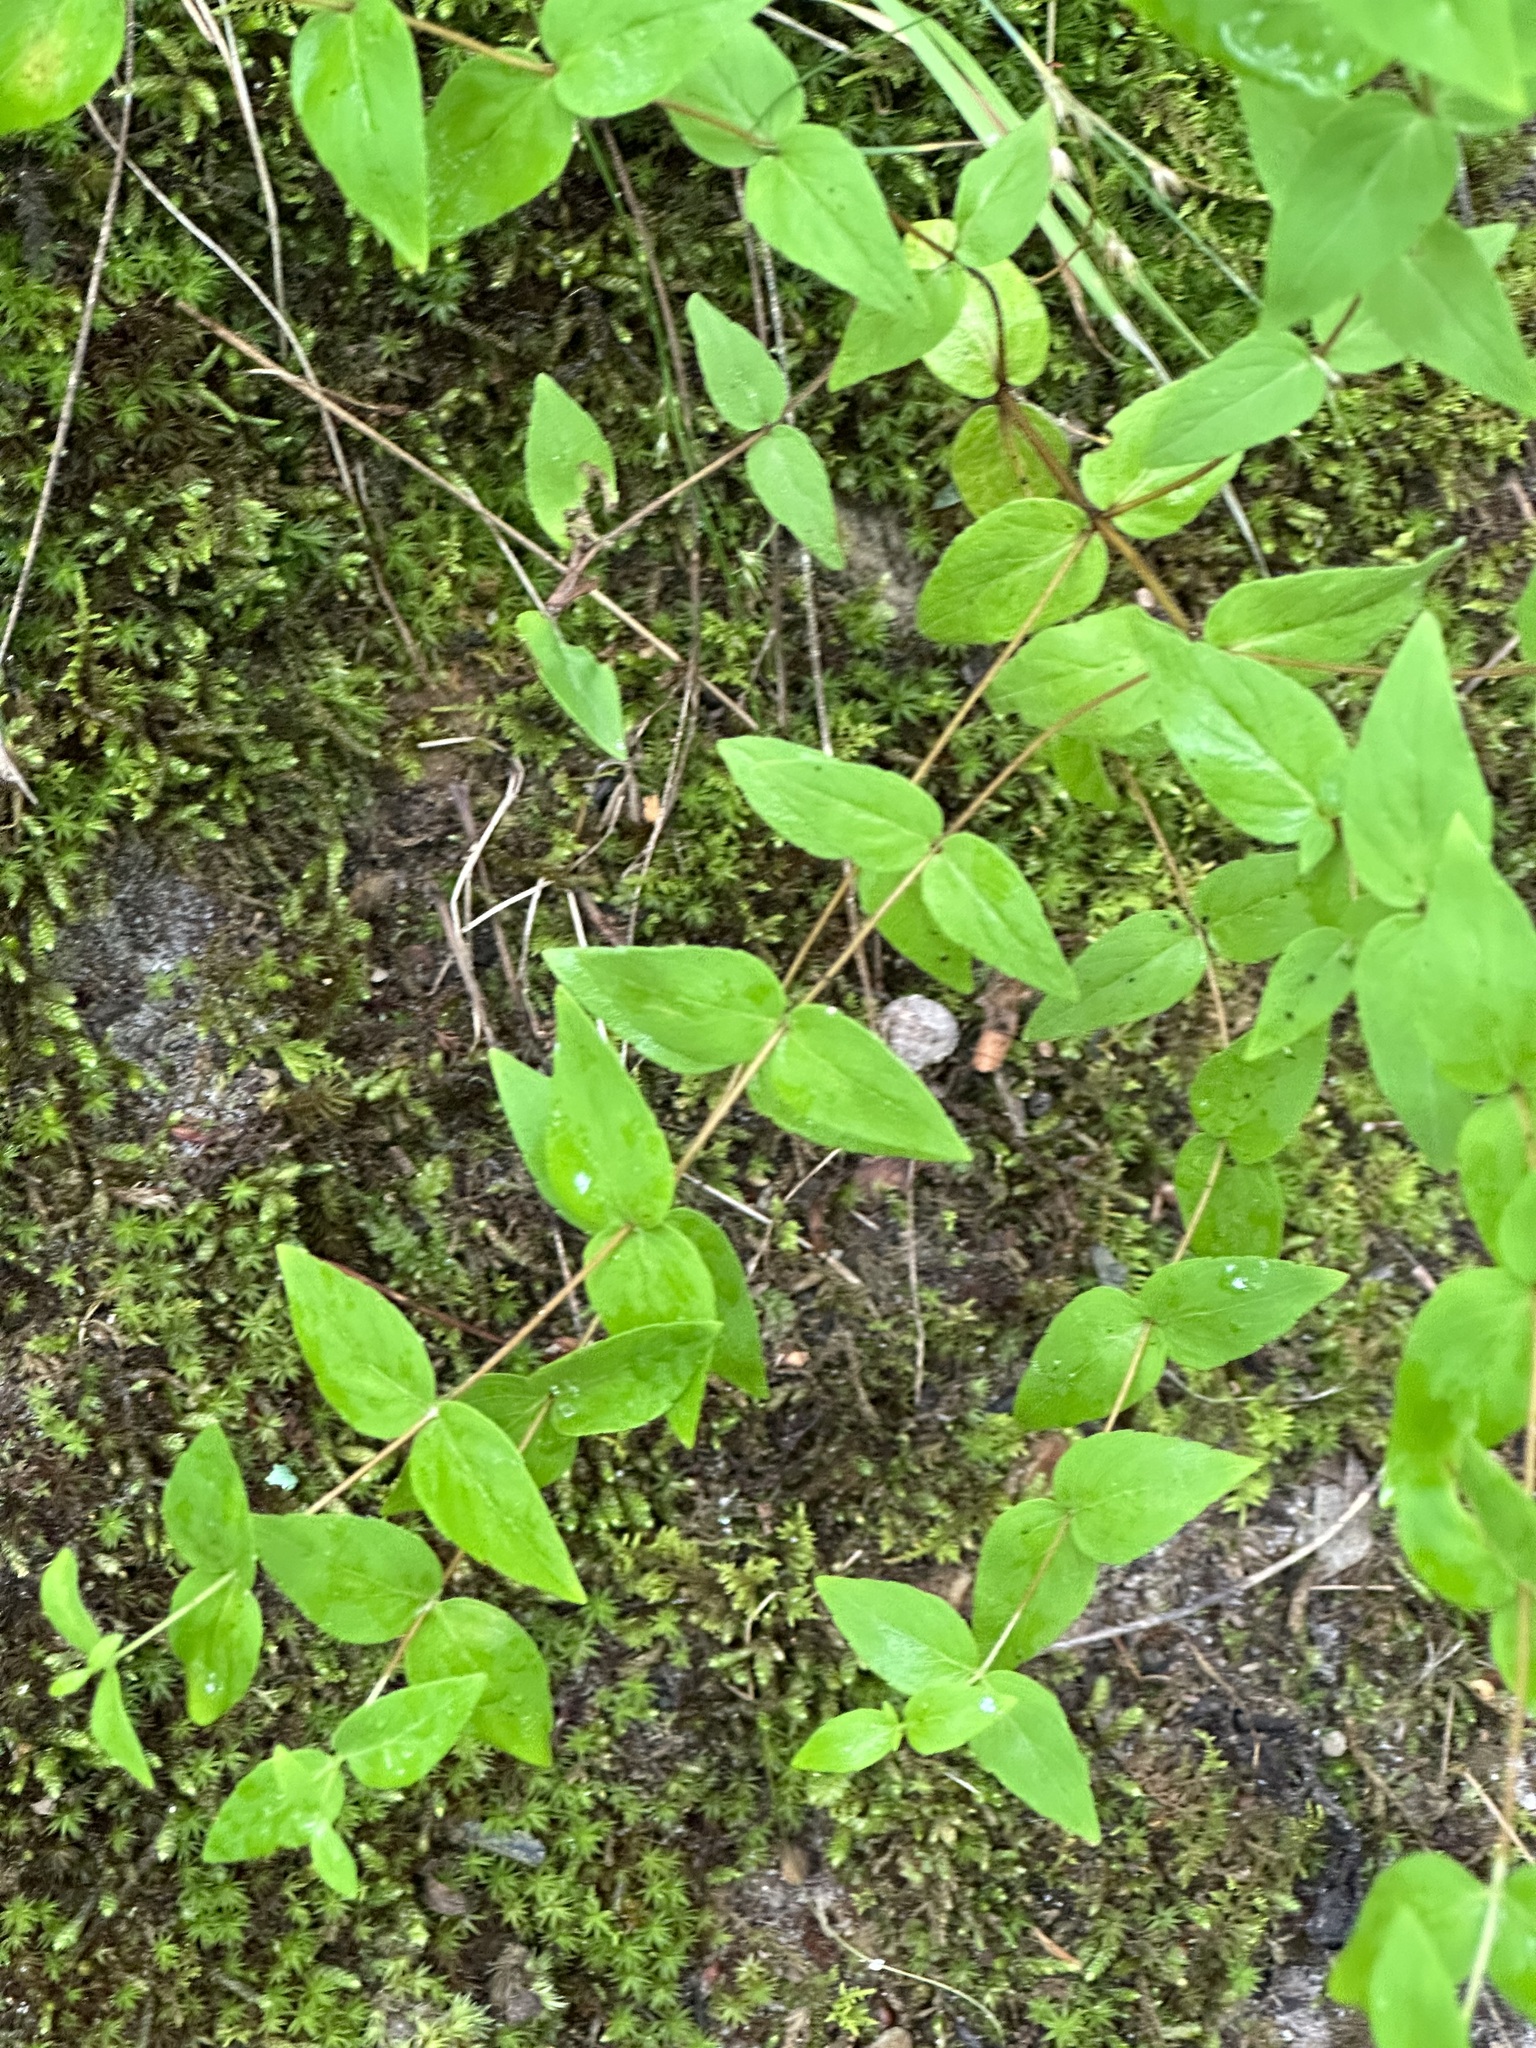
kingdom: Plantae
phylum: Tracheophyta
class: Magnoliopsida
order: Lamiales
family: Lamiaceae
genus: Cunila
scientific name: Cunila origanoides
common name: American dittany
